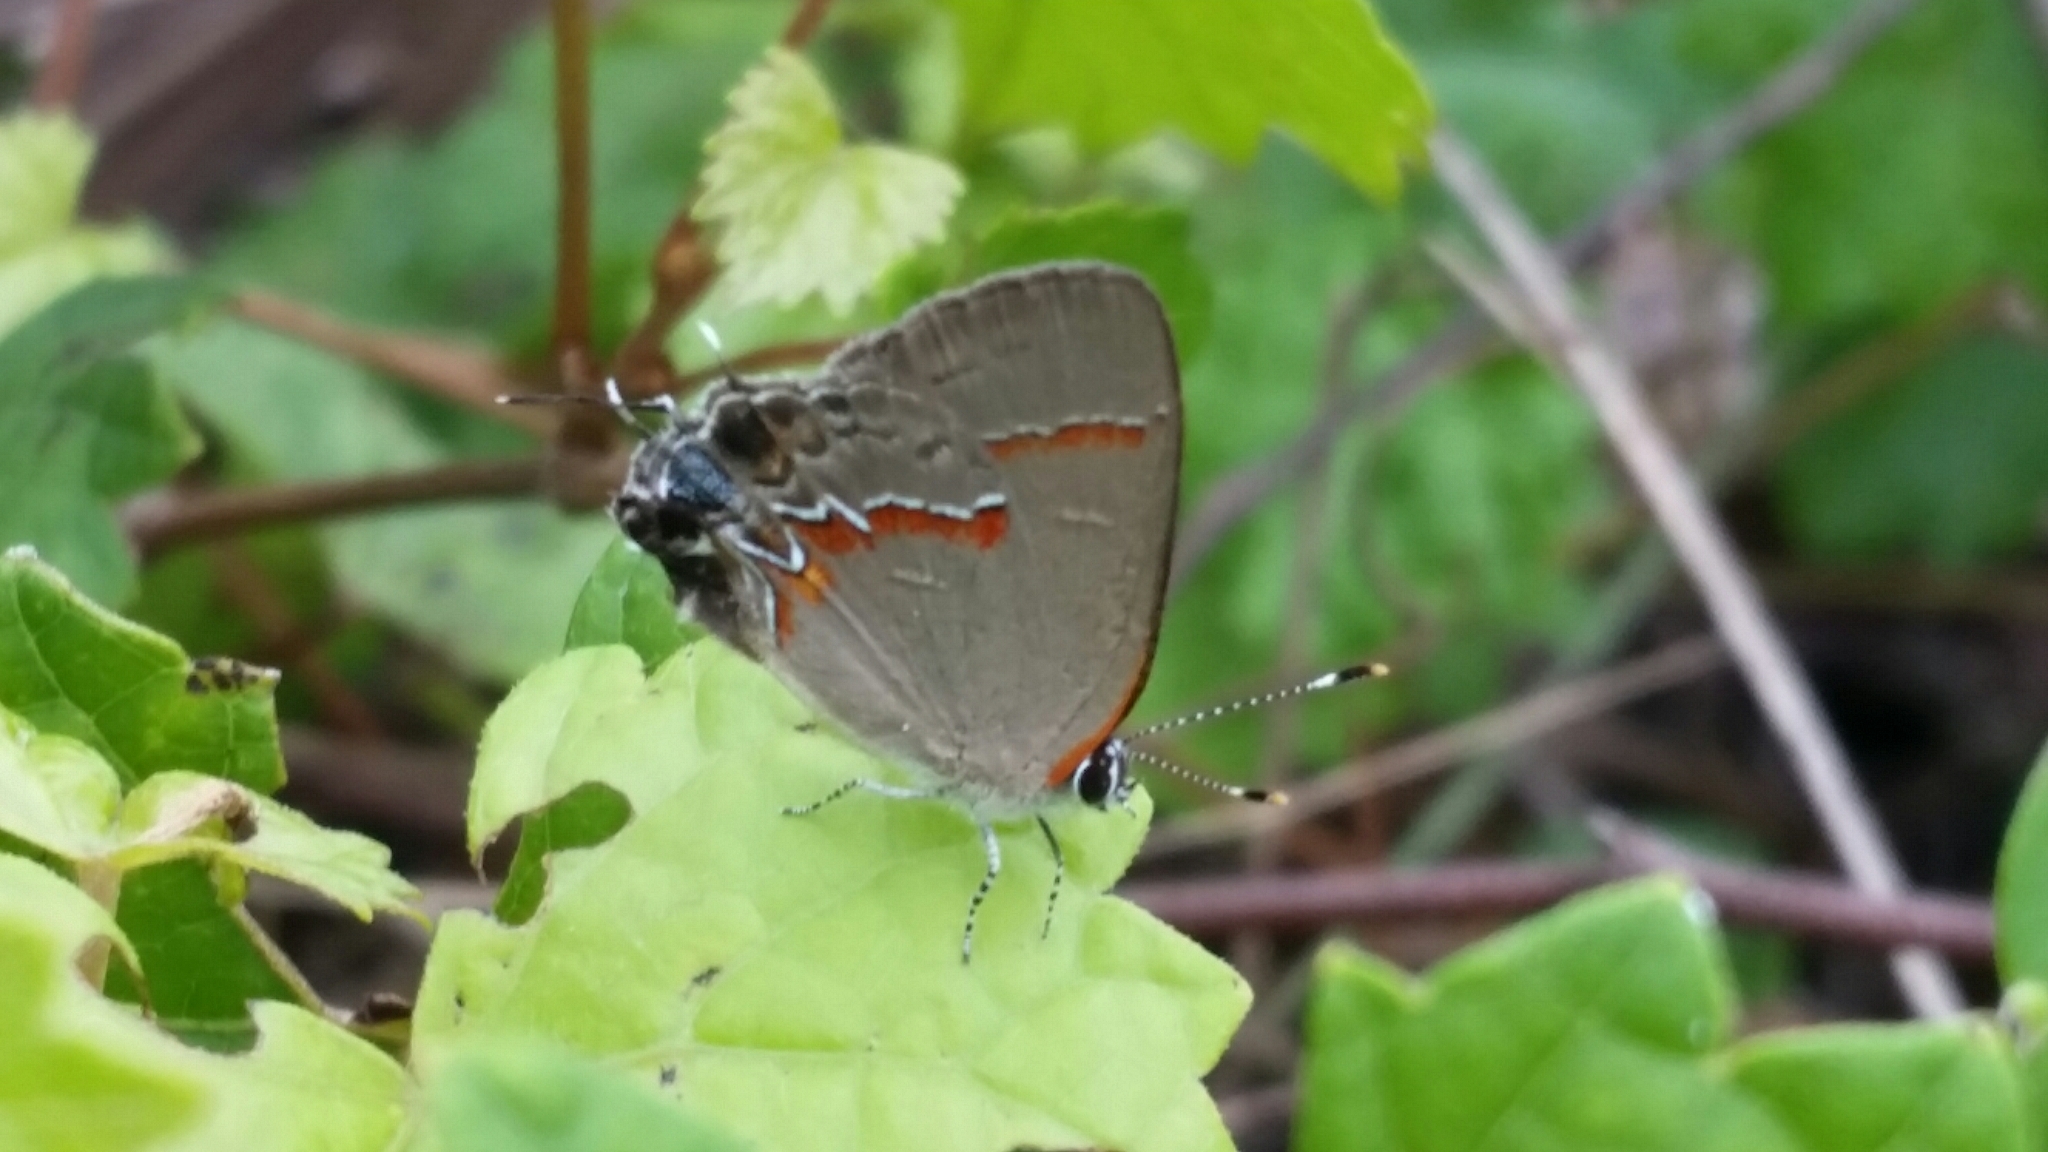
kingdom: Animalia
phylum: Arthropoda
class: Insecta
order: Lepidoptera
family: Lycaenidae
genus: Calycopis
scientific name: Calycopis cecrops
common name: Red-banded hairstreak
